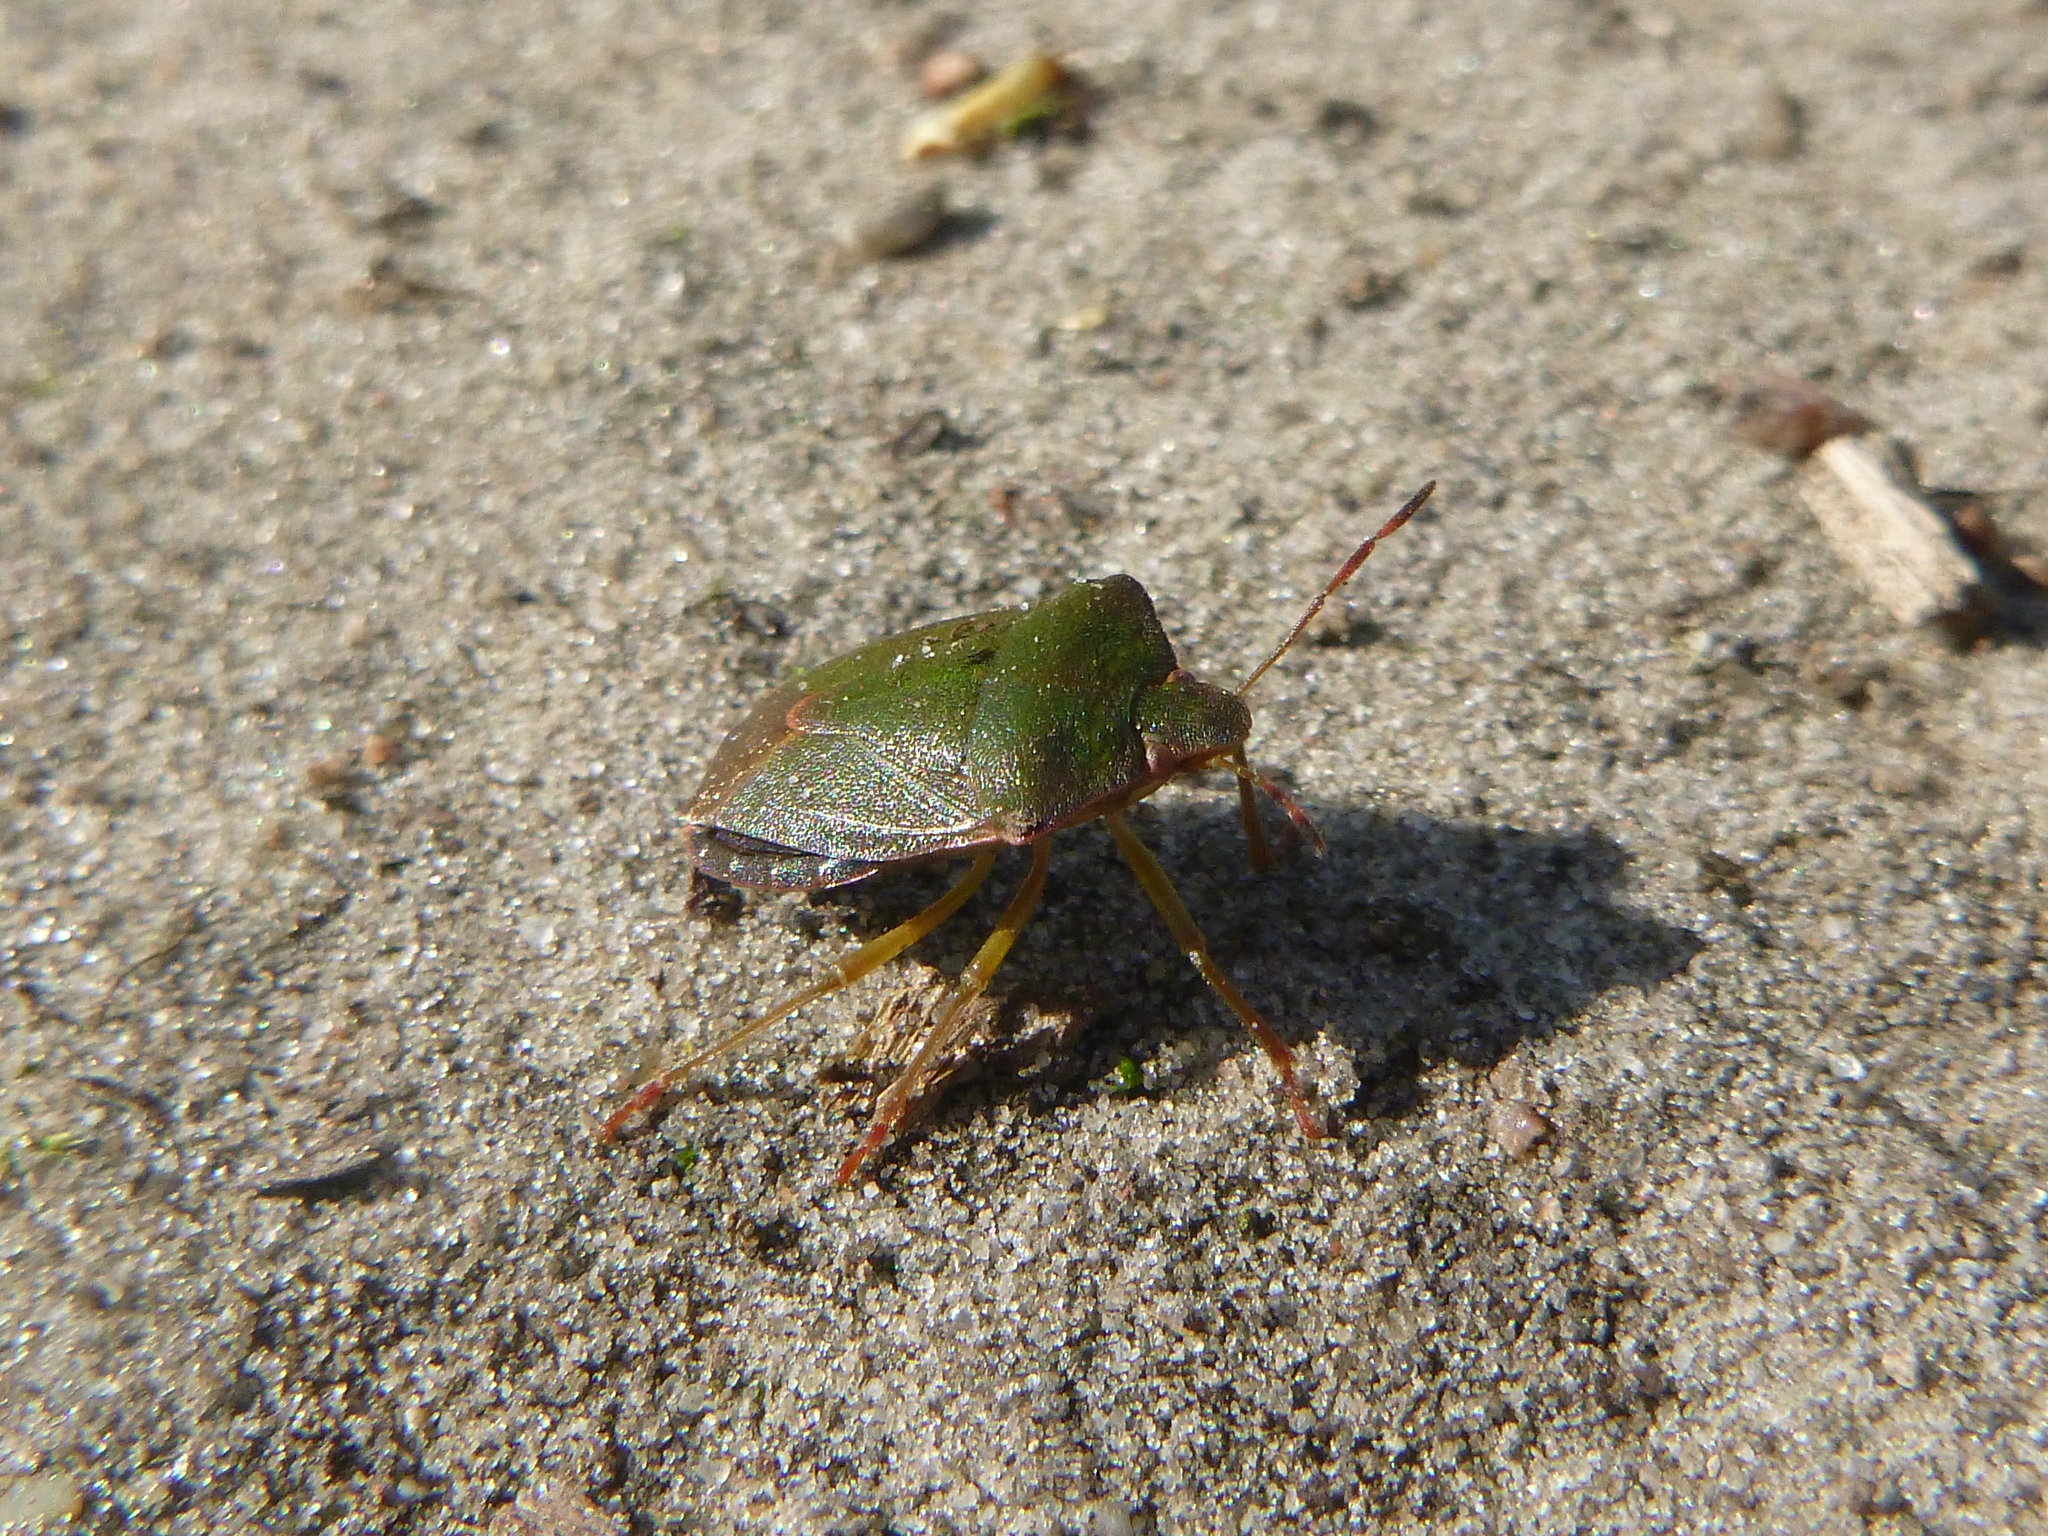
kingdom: Animalia
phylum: Arthropoda
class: Insecta
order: Hemiptera
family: Pentatomidae
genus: Palomena
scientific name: Palomena prasina
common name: Green shieldbug
